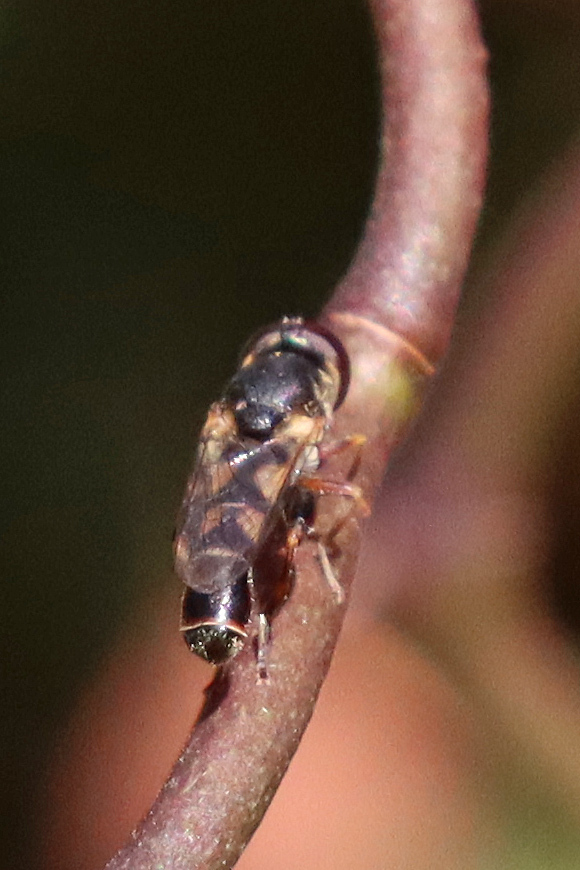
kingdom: Animalia
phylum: Arthropoda
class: Insecta
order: Diptera
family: Syrphidae
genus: Syritta
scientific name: Syritta pipiens
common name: Hover fly
